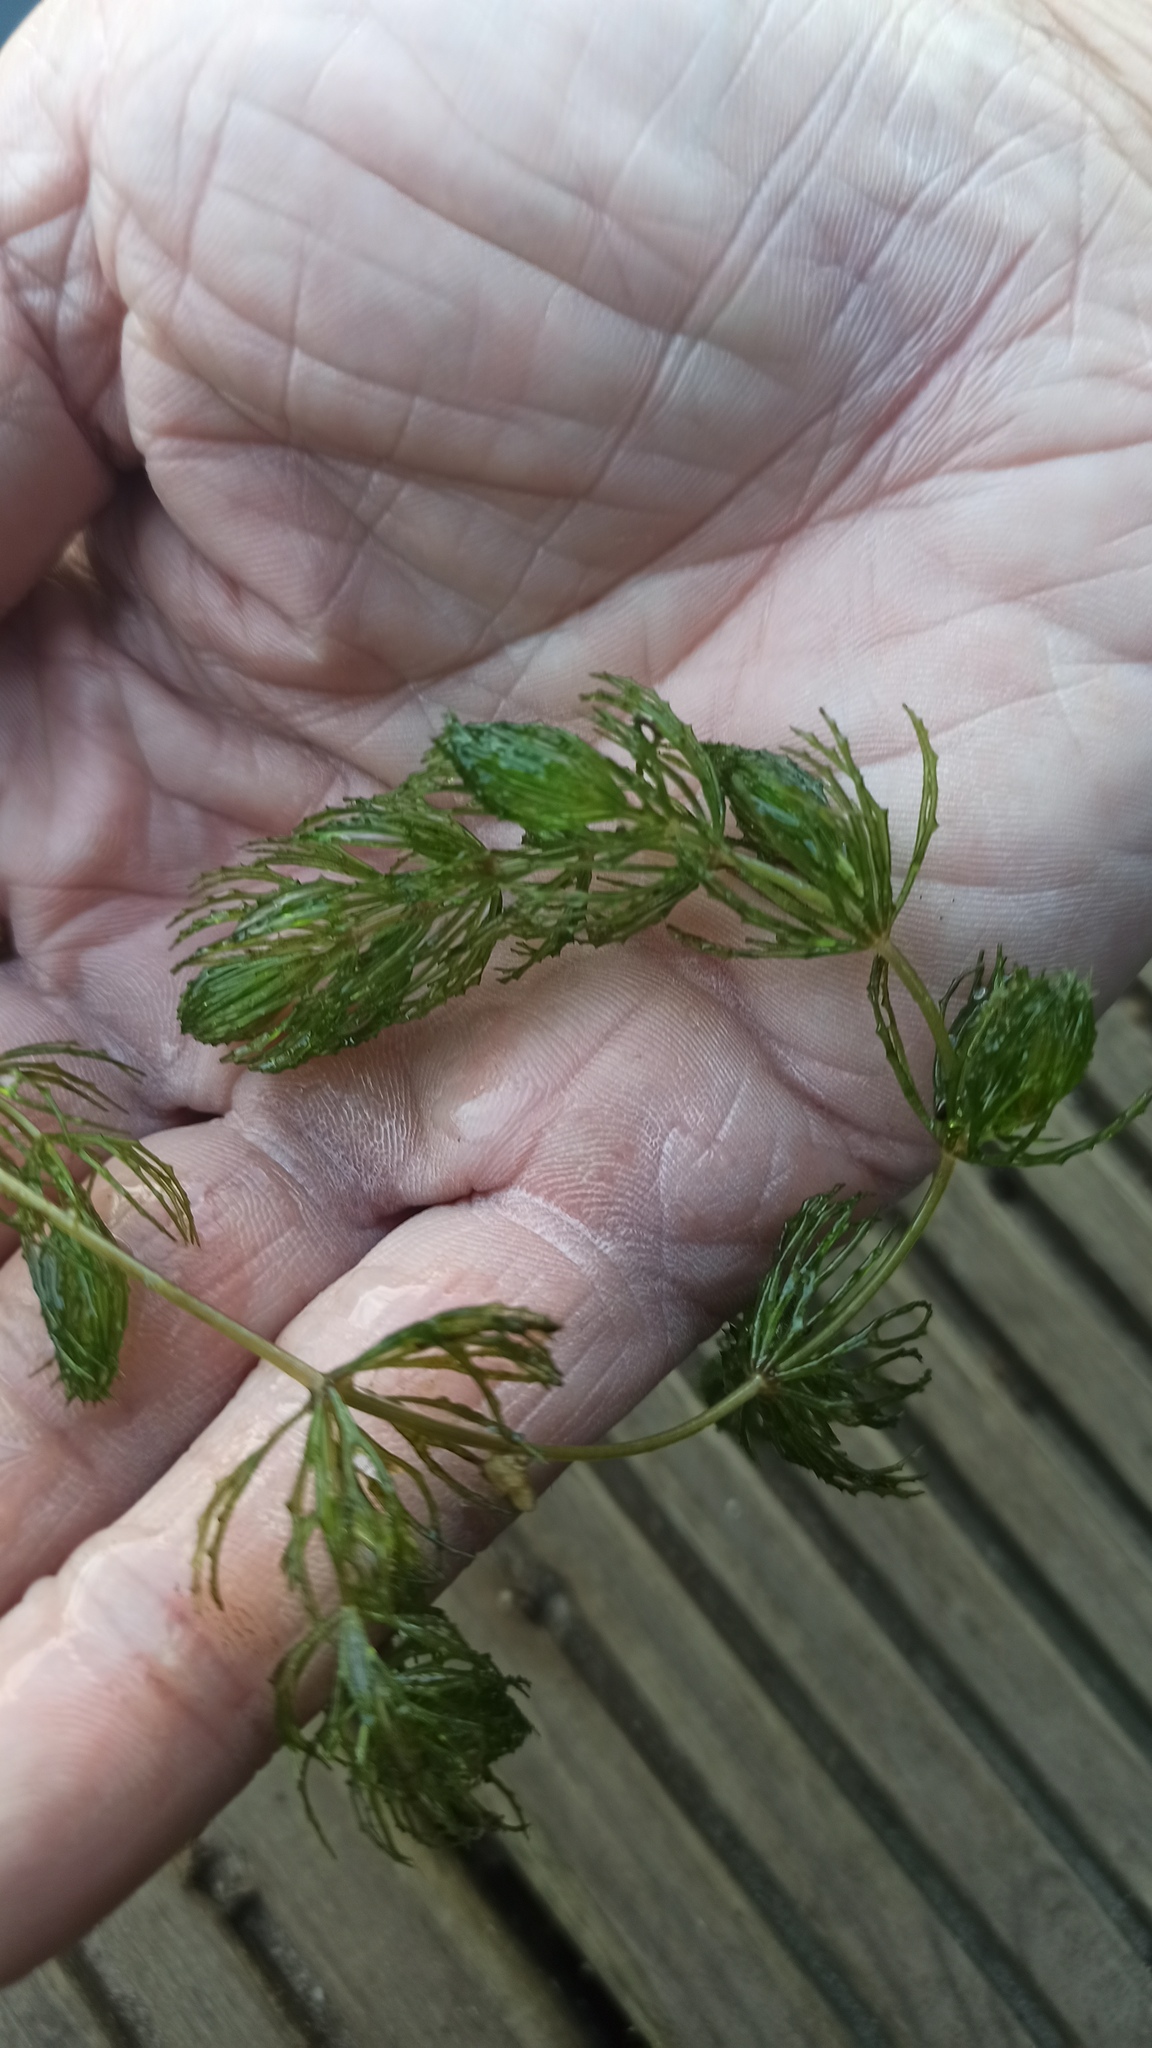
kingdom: Plantae
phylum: Tracheophyta
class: Magnoliopsida
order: Ceratophyllales
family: Ceratophyllaceae
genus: Ceratophyllum
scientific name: Ceratophyllum demersum
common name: Rigid hornwort
